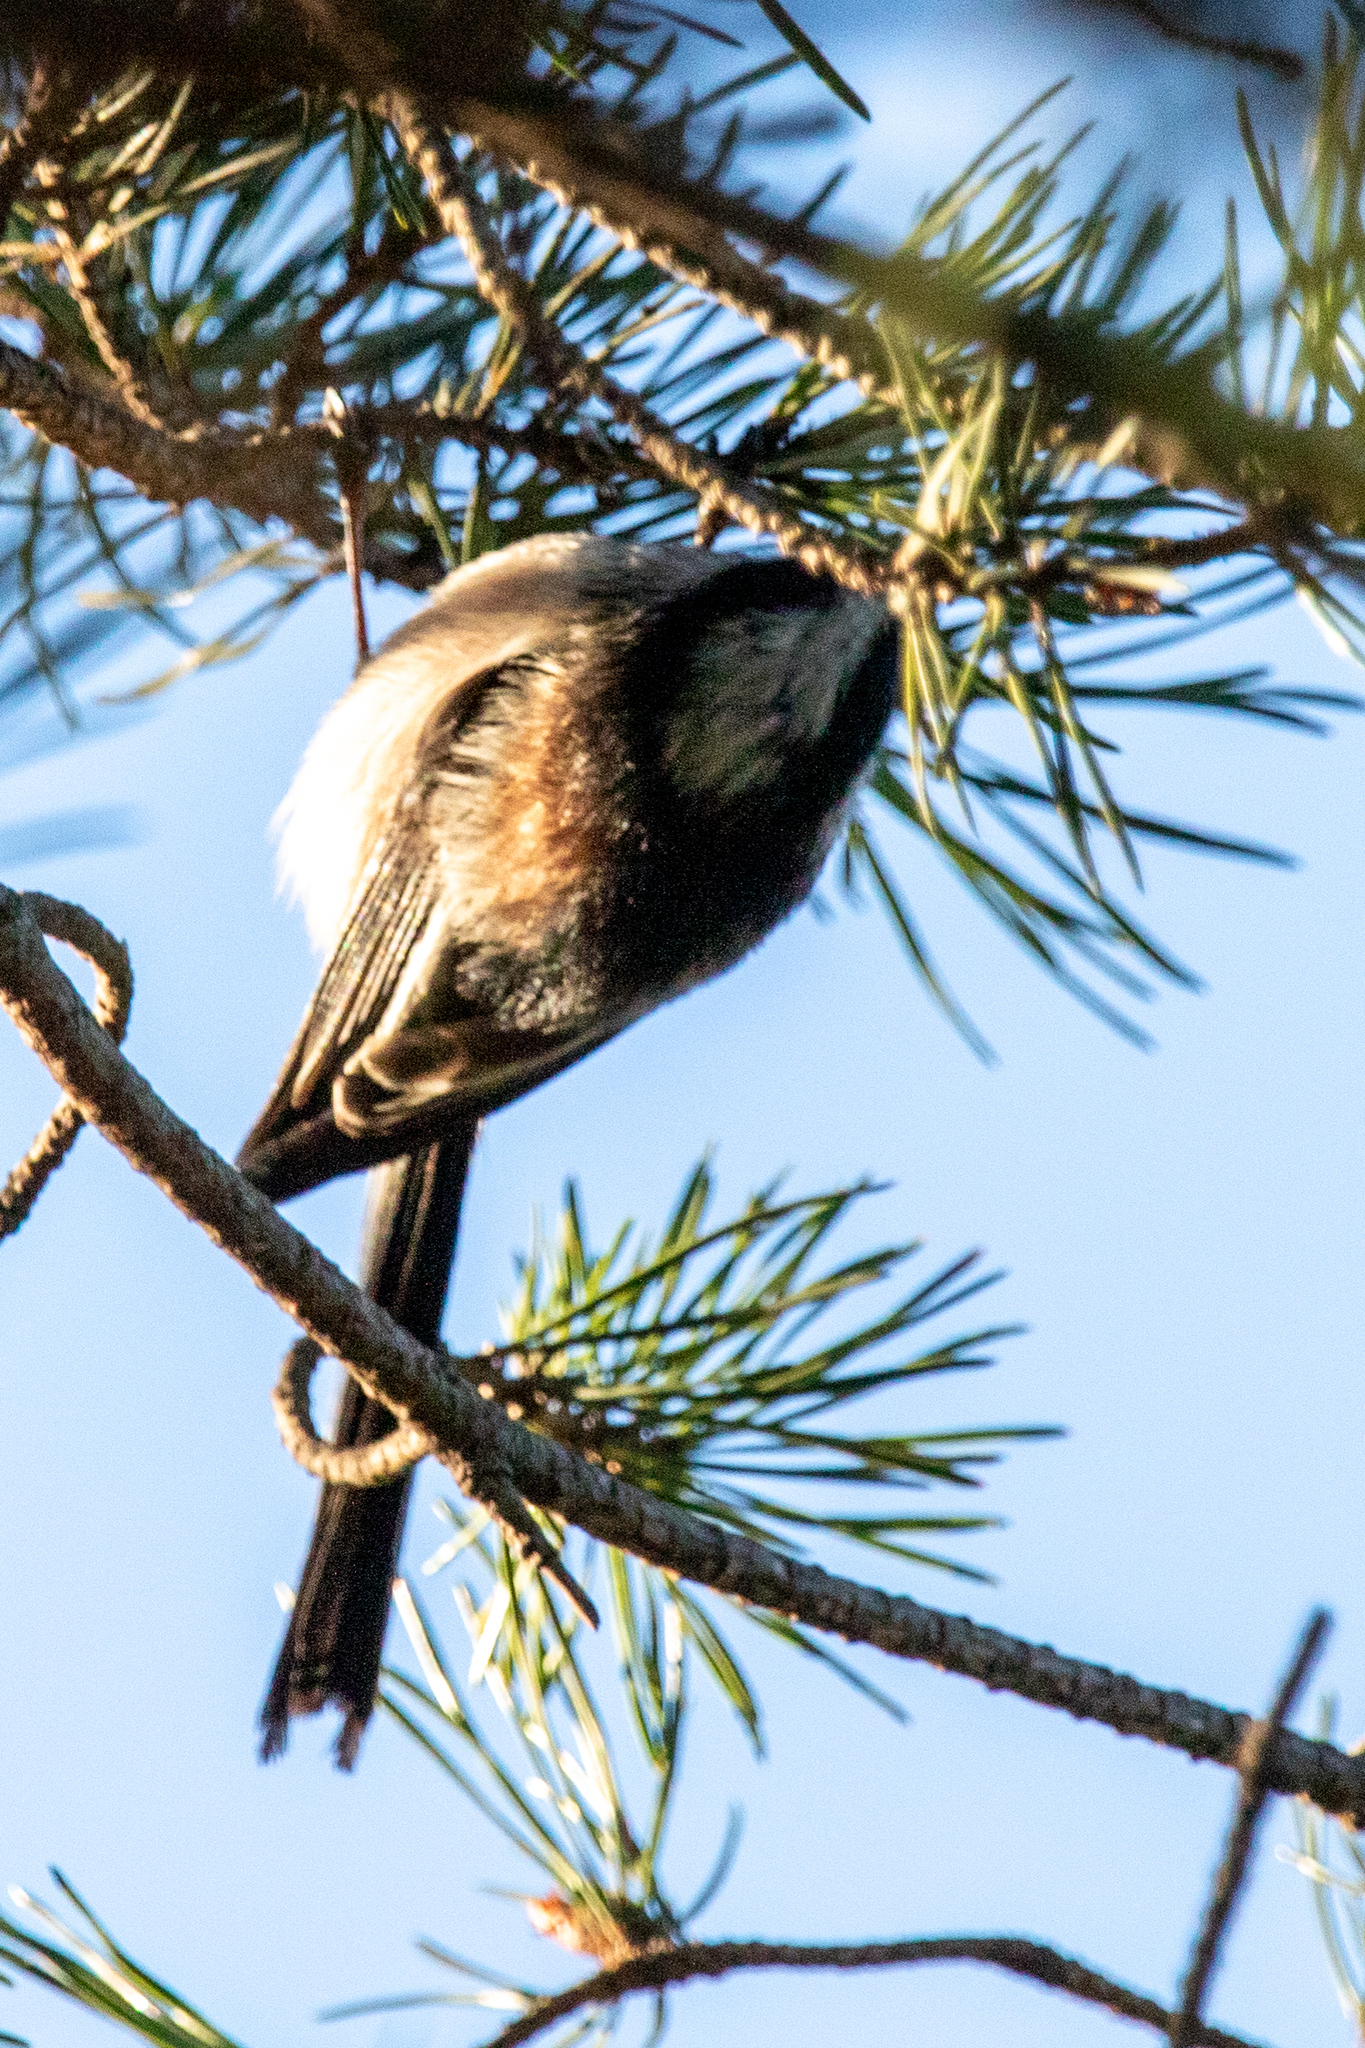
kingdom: Animalia
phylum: Chordata
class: Aves
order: Passeriformes
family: Aegithalidae
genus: Aegithalos
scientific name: Aegithalos caudatus
